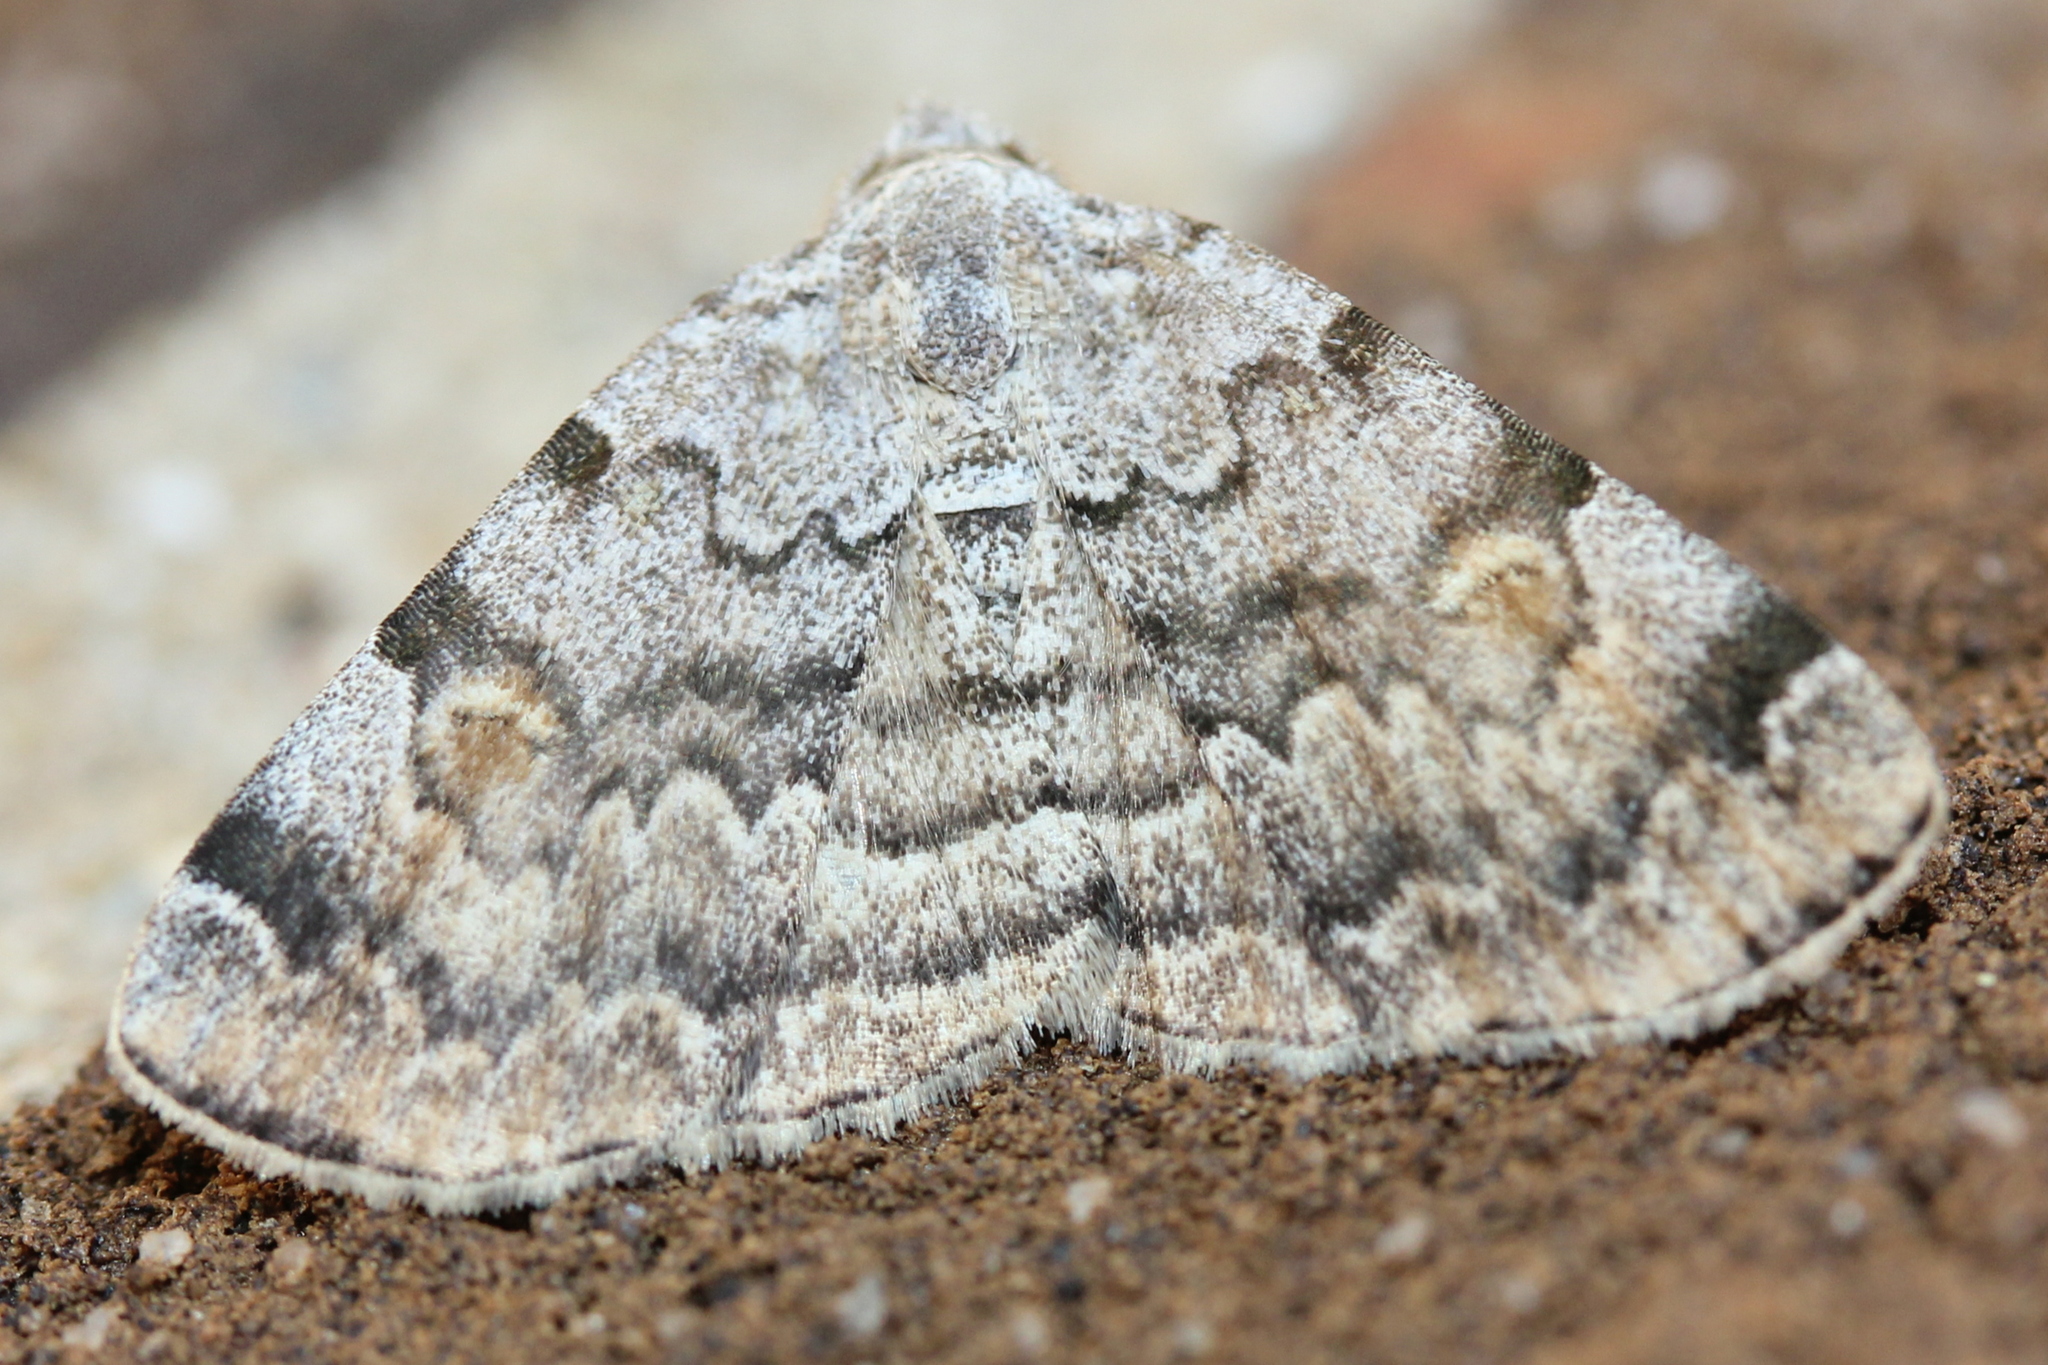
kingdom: Animalia
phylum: Arthropoda
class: Insecta
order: Lepidoptera
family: Erebidae
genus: Idia
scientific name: Idia americalis
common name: American idia moth
